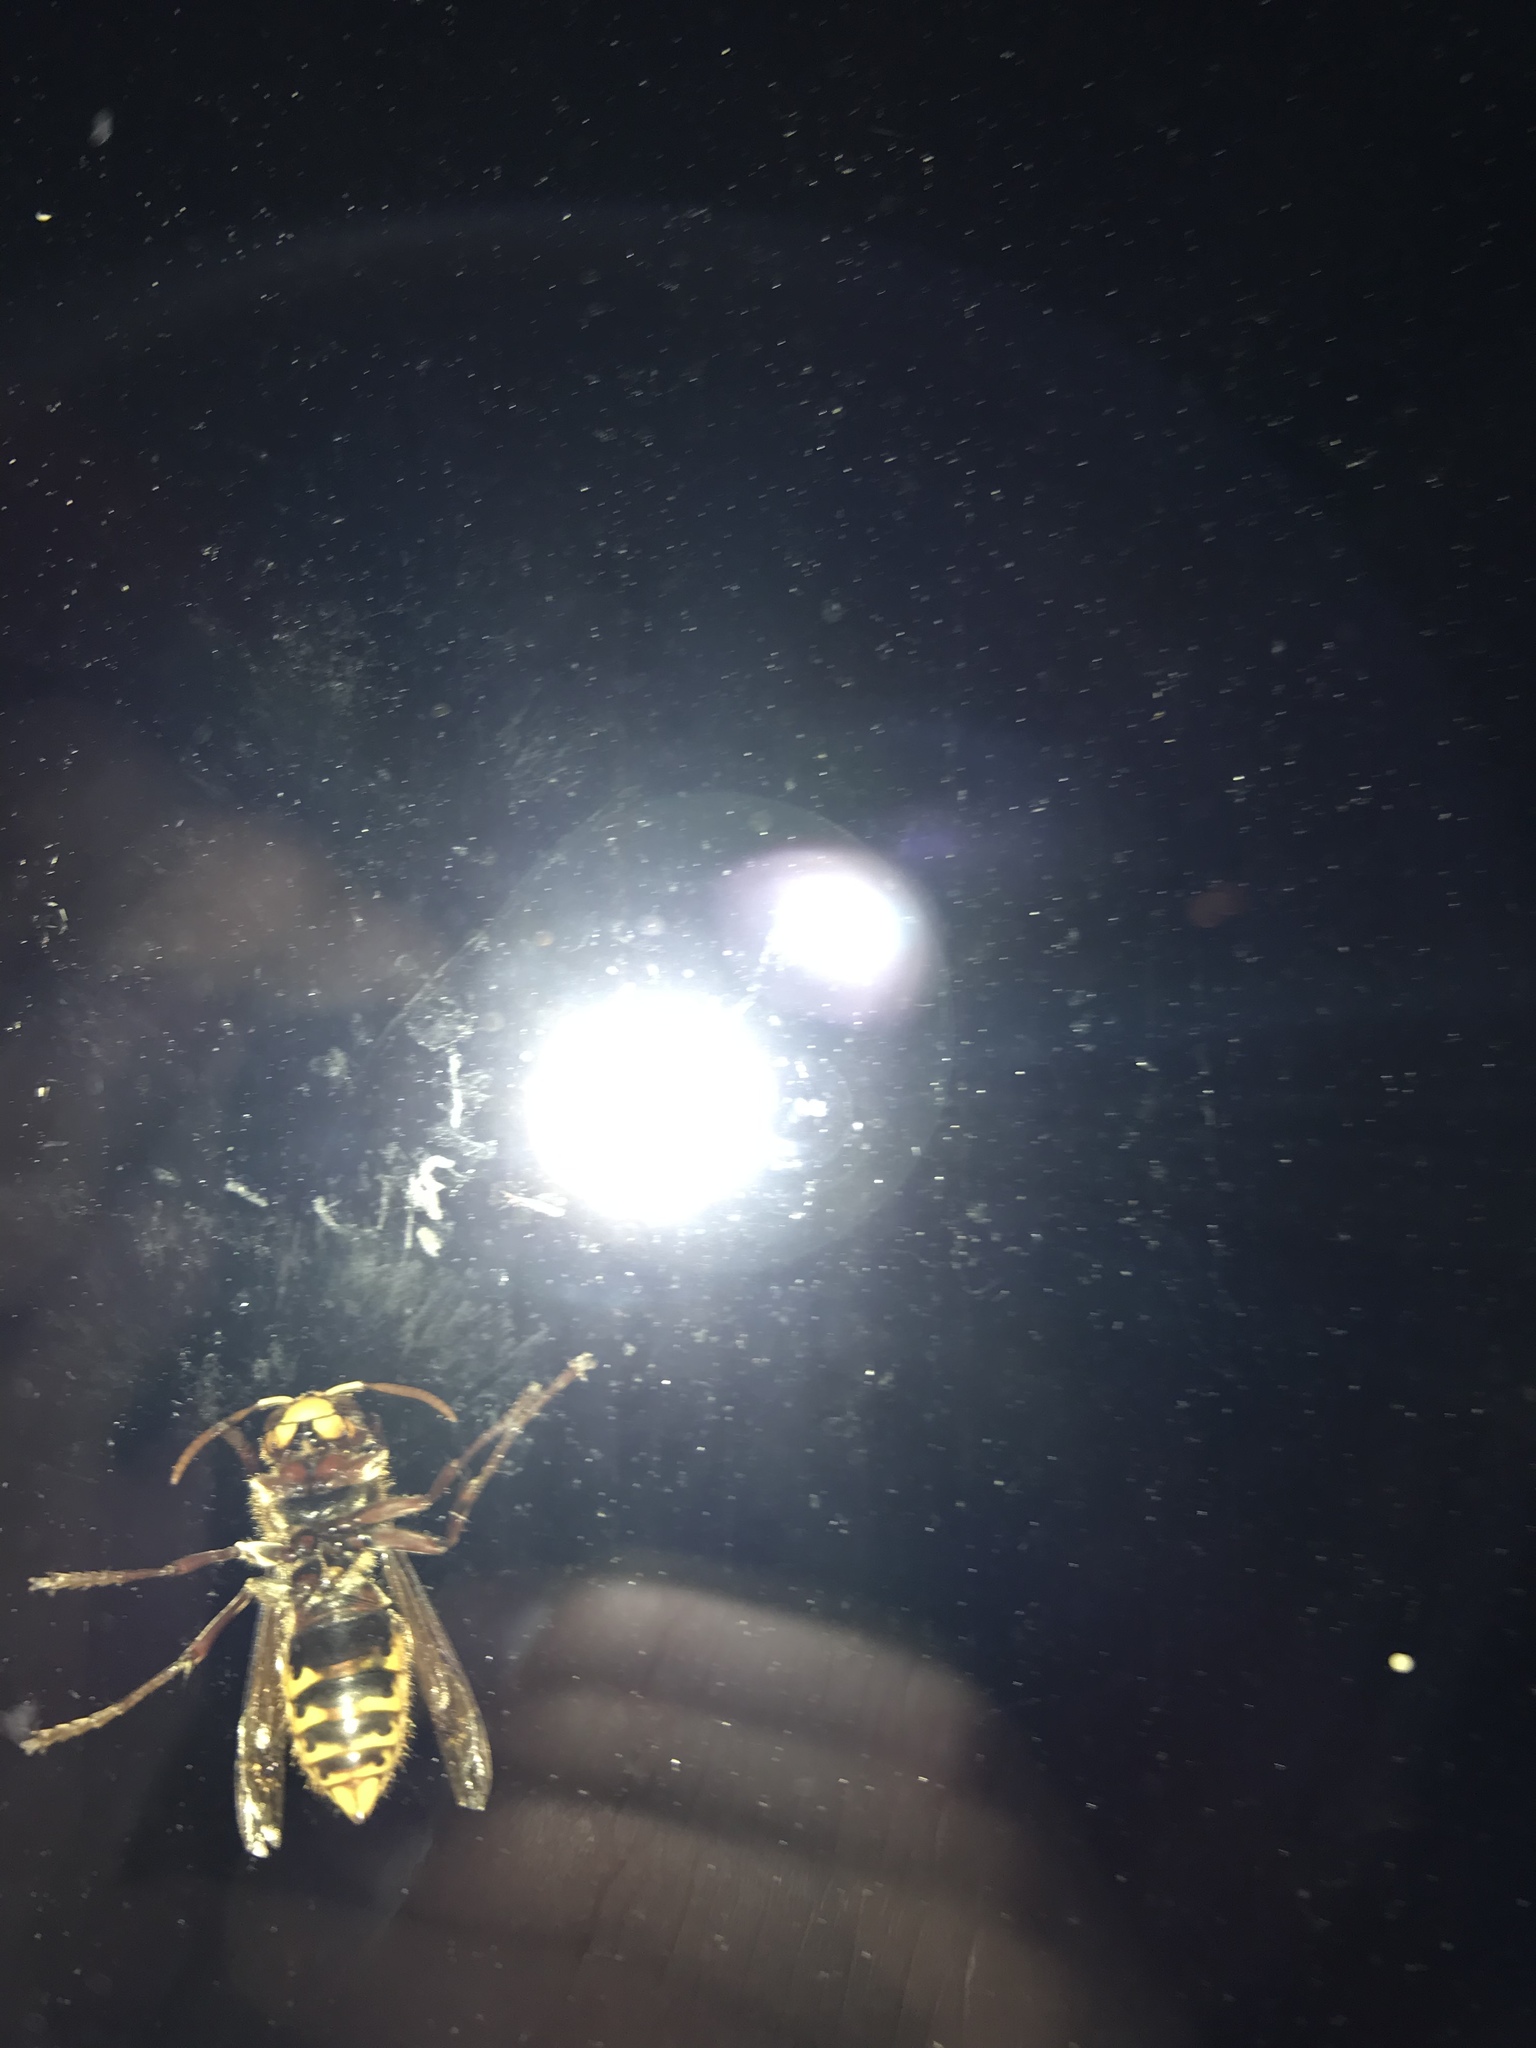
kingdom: Animalia
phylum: Arthropoda
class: Insecta
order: Hymenoptera
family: Vespidae
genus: Vespa
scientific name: Vespa crabro
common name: Hornet
